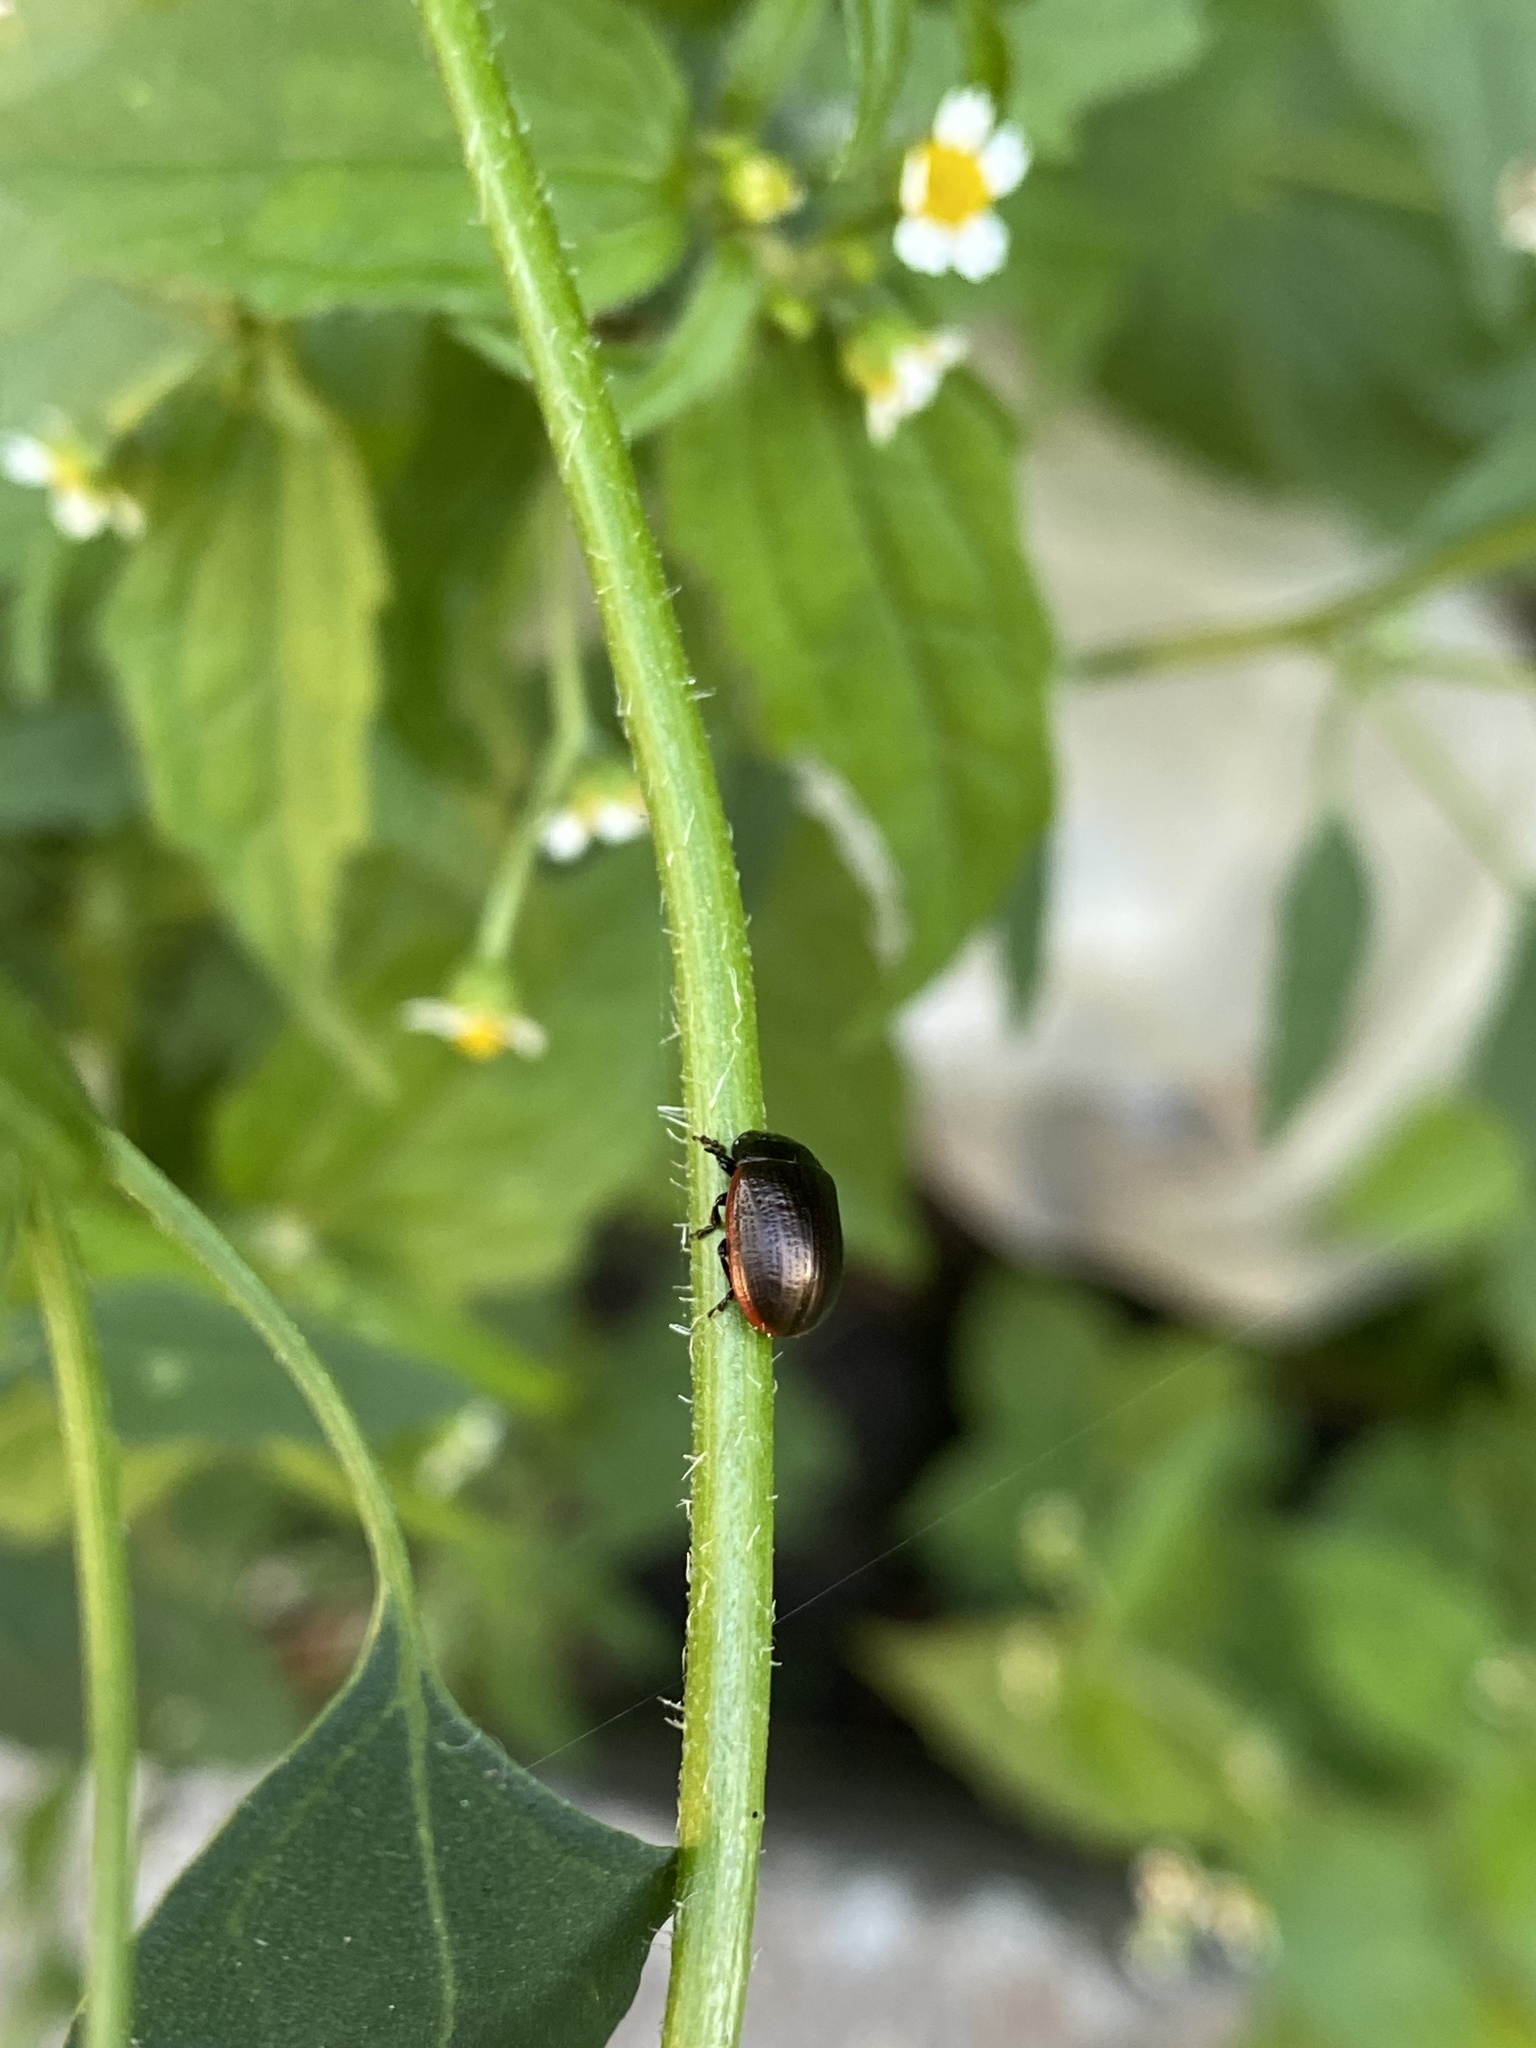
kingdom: Animalia
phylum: Arthropoda
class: Insecta
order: Coleoptera
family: Chrysomelidae
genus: Chrysolina
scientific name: Chrysolina marginata
